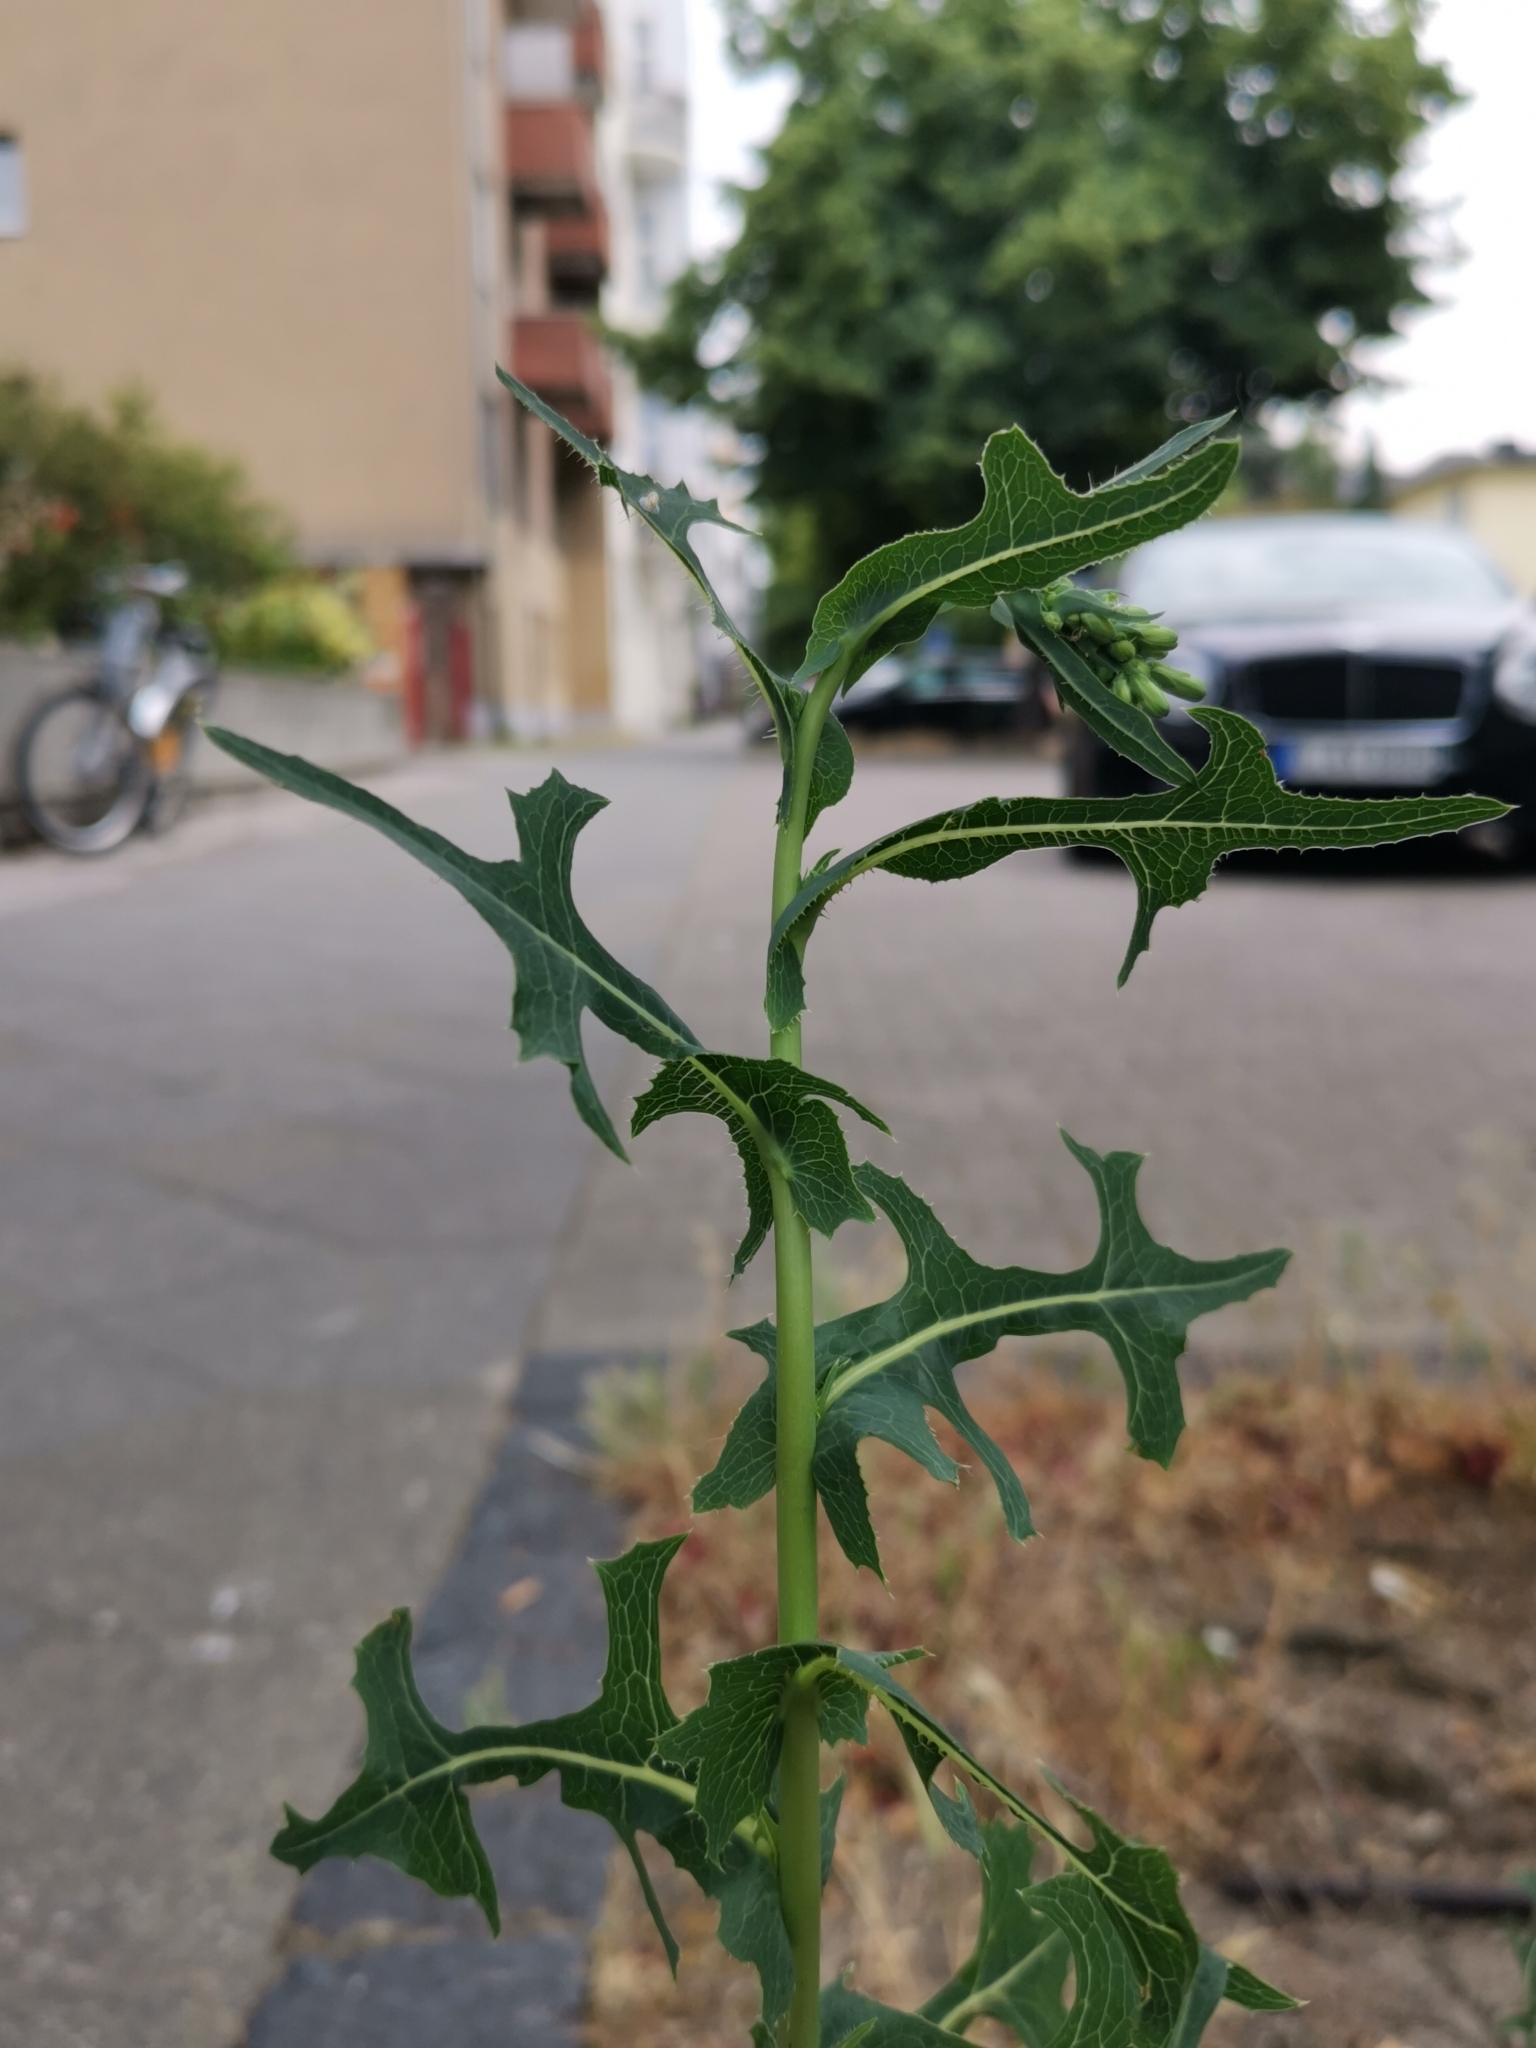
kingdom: Plantae
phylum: Tracheophyta
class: Magnoliopsida
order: Asterales
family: Asteraceae
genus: Lactuca
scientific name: Lactuca serriola
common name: Prickly lettuce
